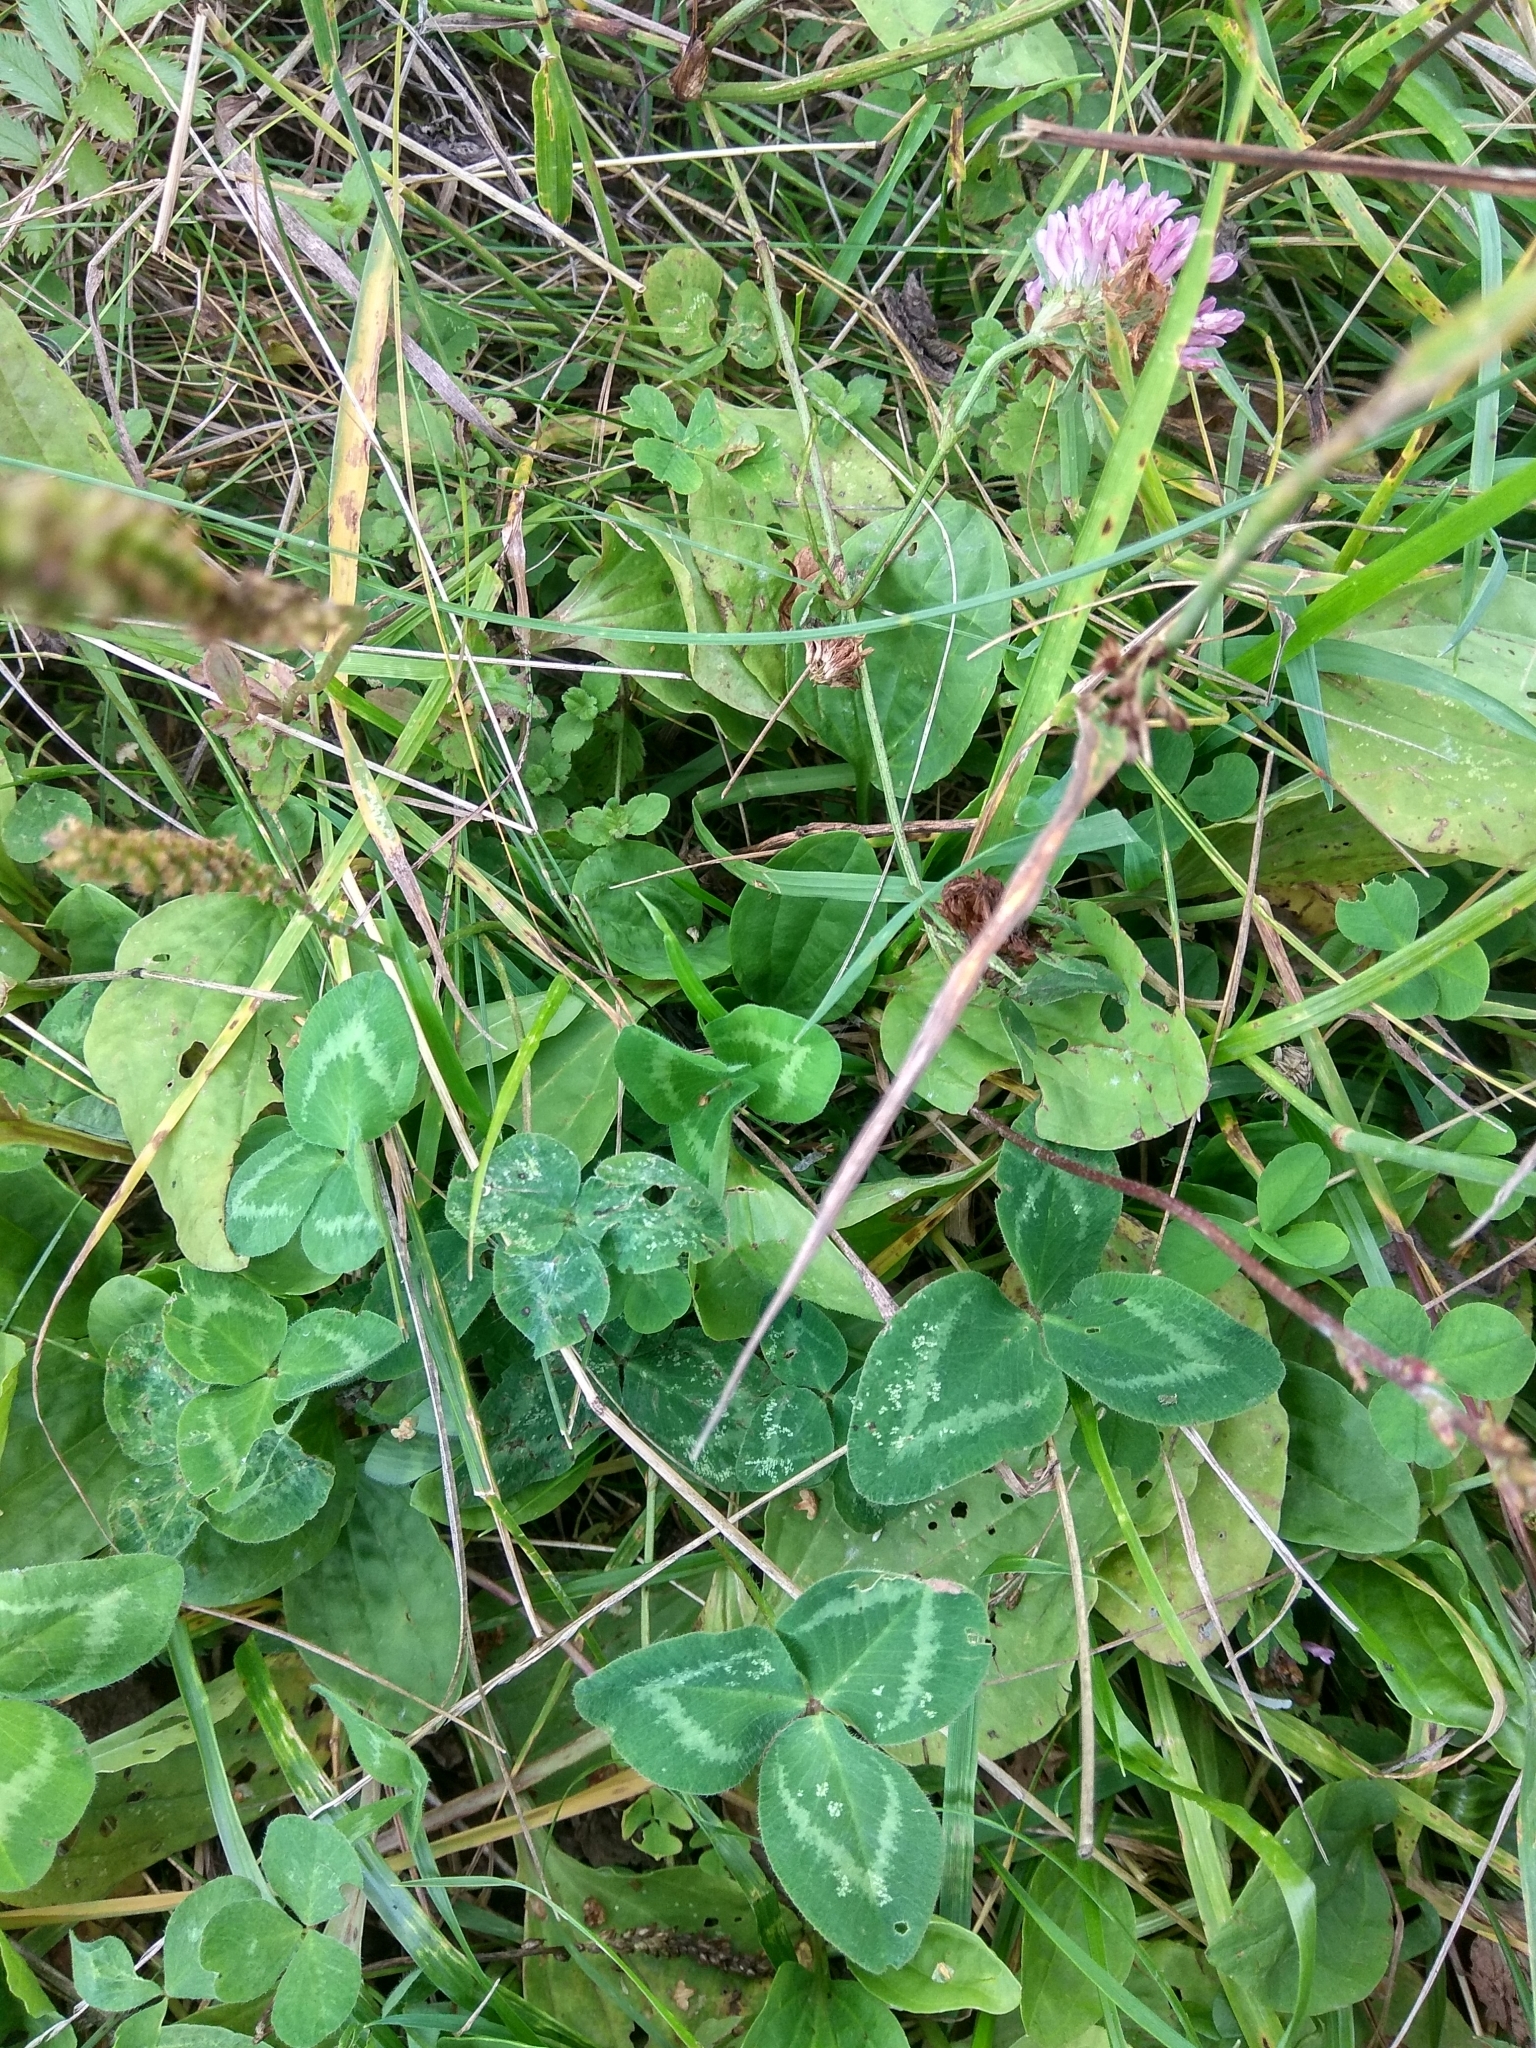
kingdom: Plantae
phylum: Tracheophyta
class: Magnoliopsida
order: Fabales
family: Fabaceae
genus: Trifolium
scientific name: Trifolium pratense
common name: Red clover
